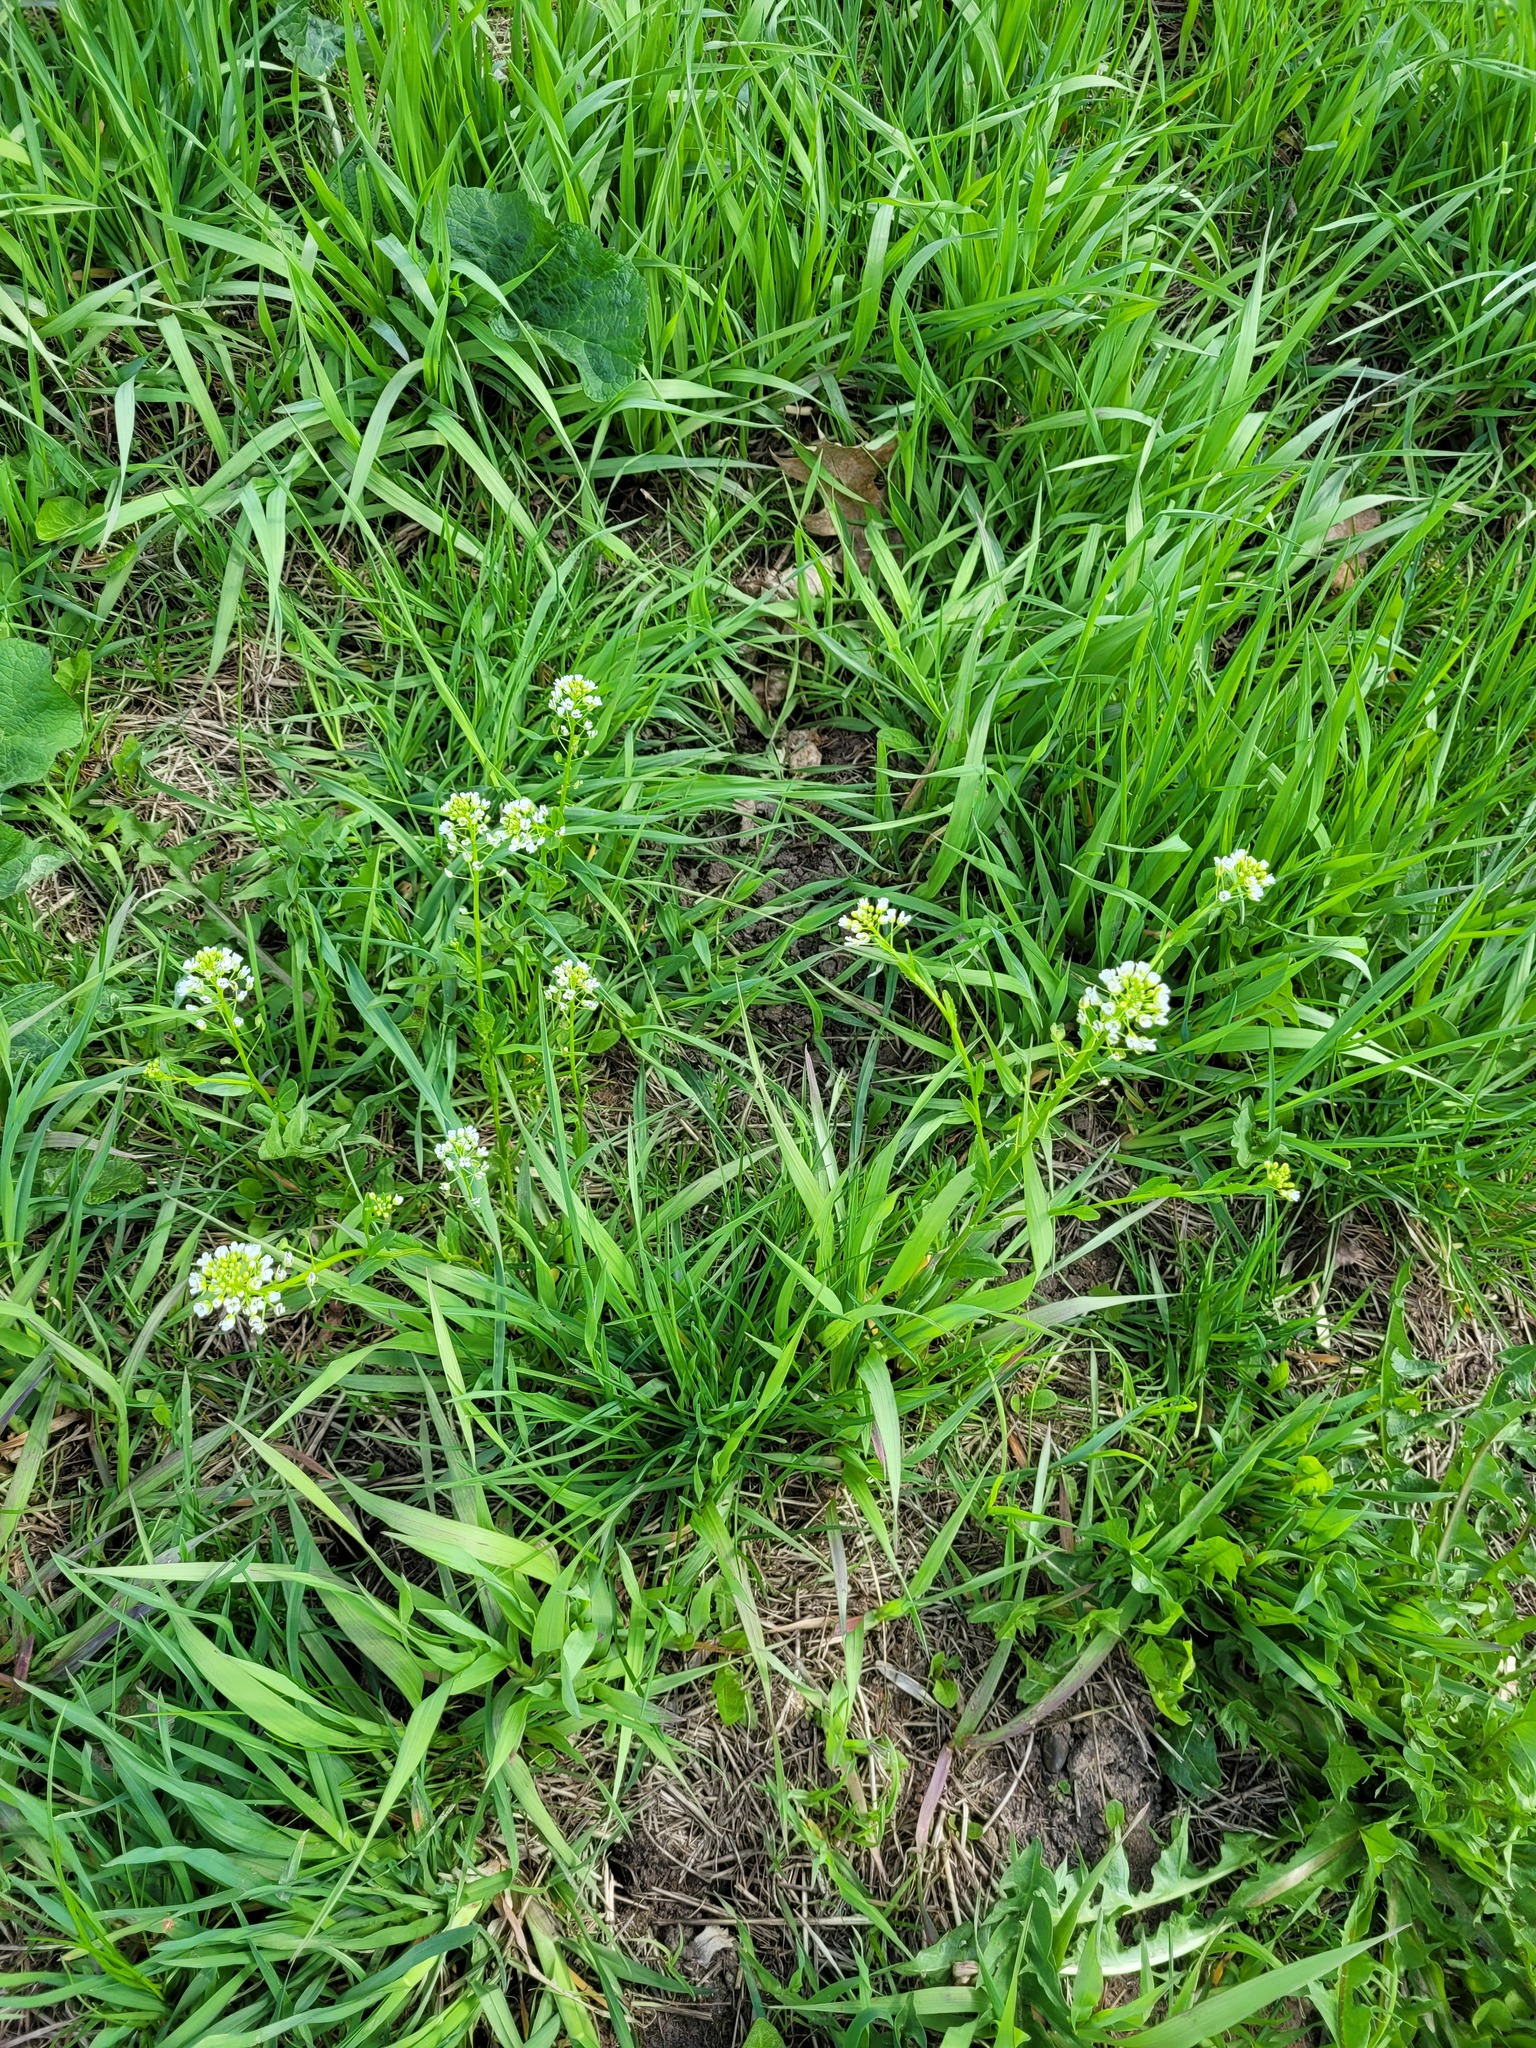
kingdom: Plantae
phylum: Tracheophyta
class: Magnoliopsida
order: Brassicales
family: Brassicaceae
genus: Thlaspi
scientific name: Thlaspi arvense
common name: Field pennycress
